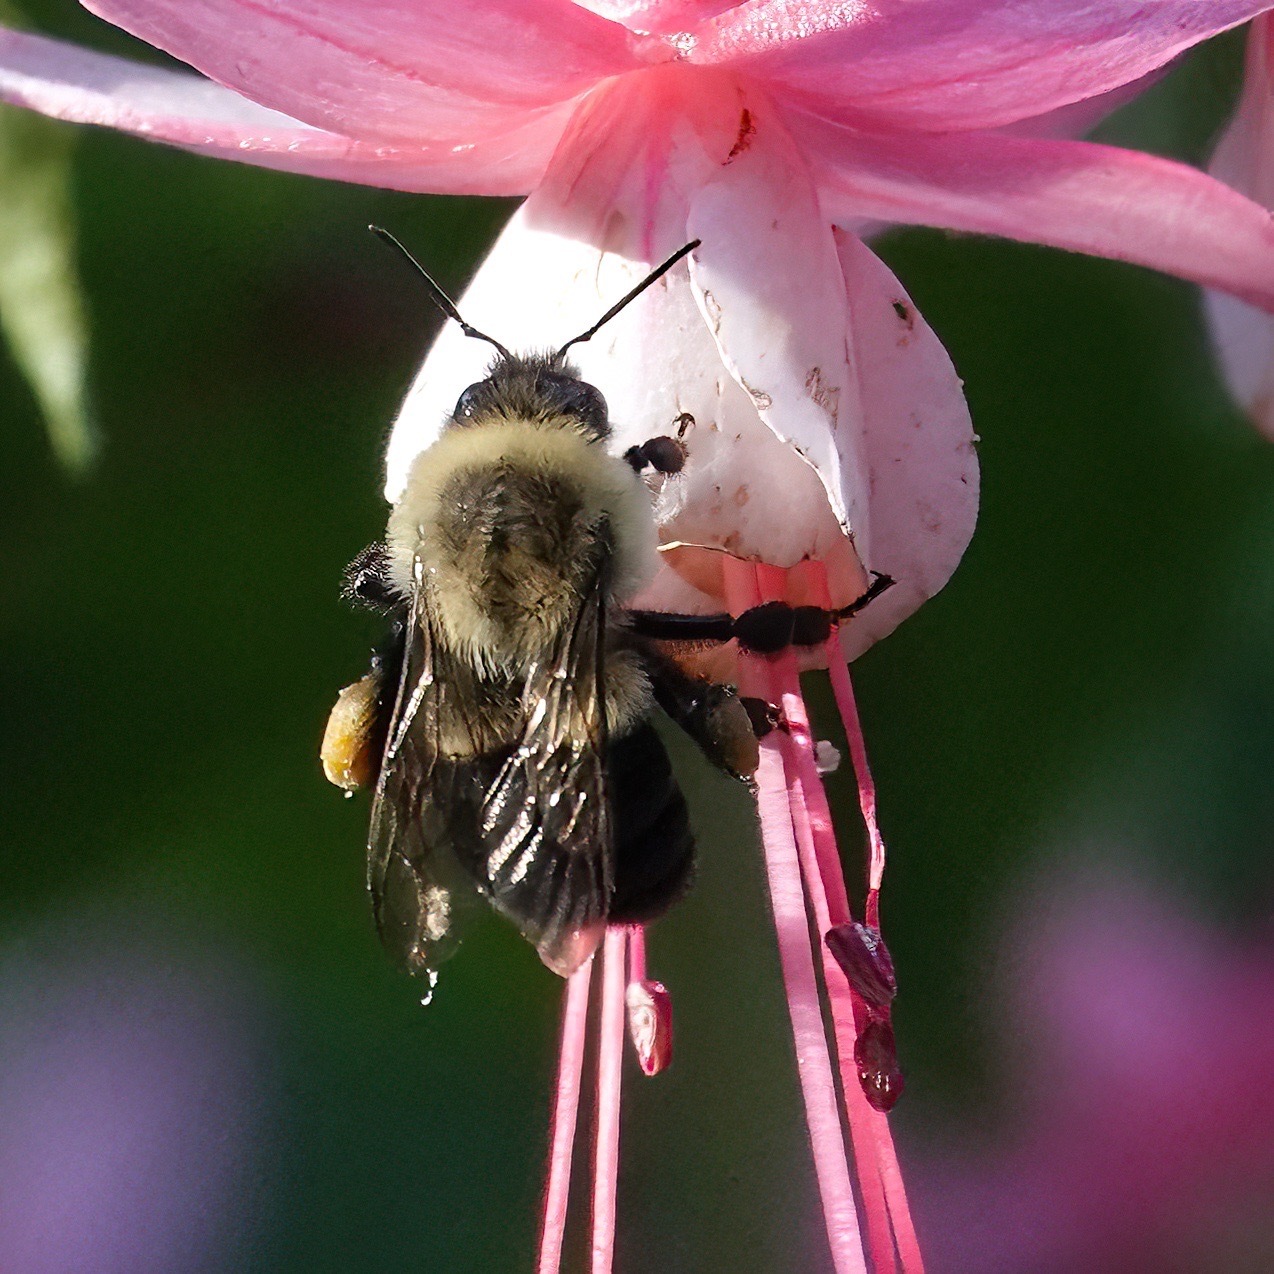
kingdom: Animalia
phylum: Arthropoda
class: Insecta
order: Hymenoptera
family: Apidae
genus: Bombus
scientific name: Bombus impatiens
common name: Common eastern bumble bee
